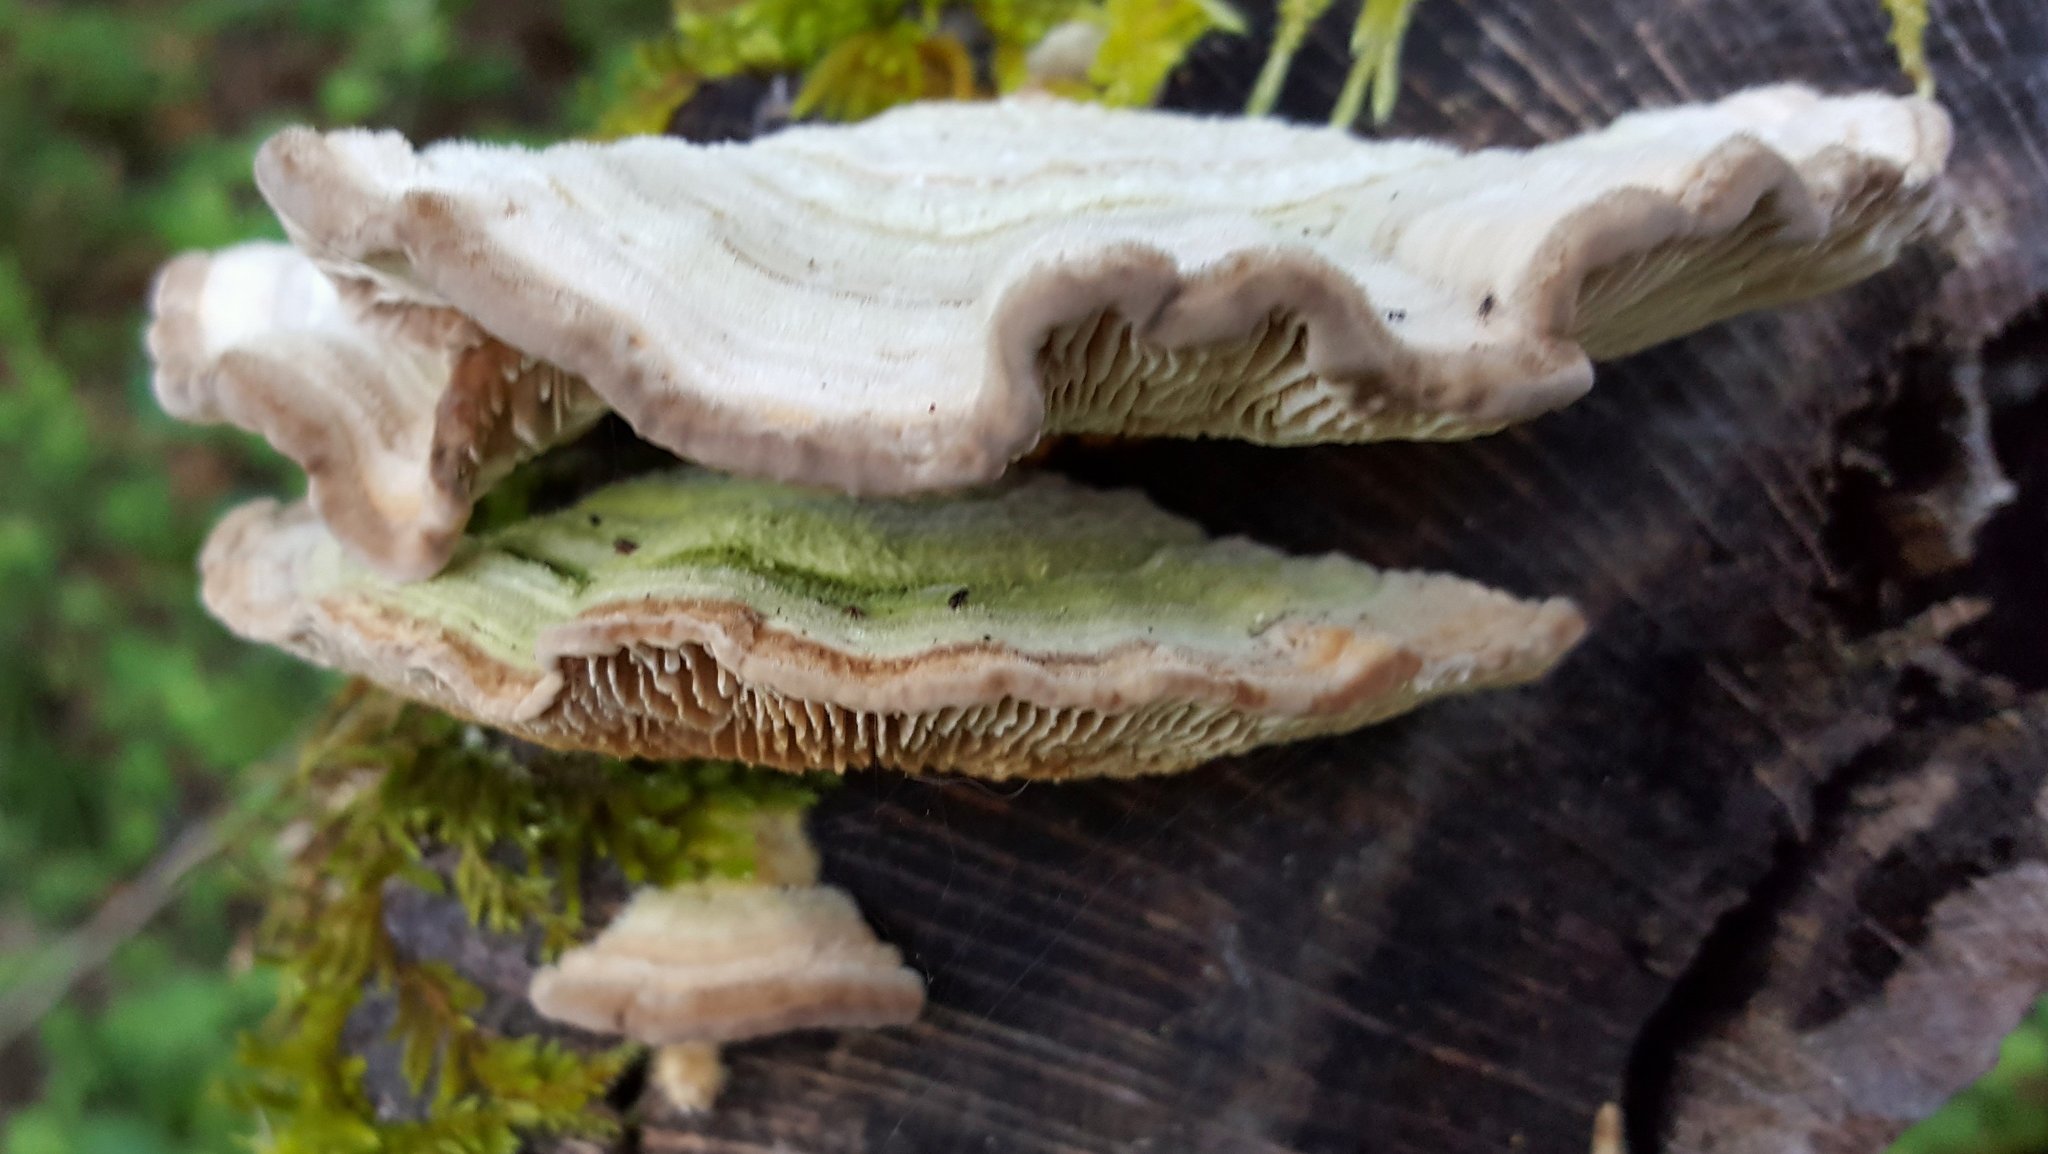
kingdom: Fungi
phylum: Basidiomycota
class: Agaricomycetes
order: Polyporales
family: Polyporaceae
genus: Lenzites
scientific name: Lenzites betulinus
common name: Birch mazegill
